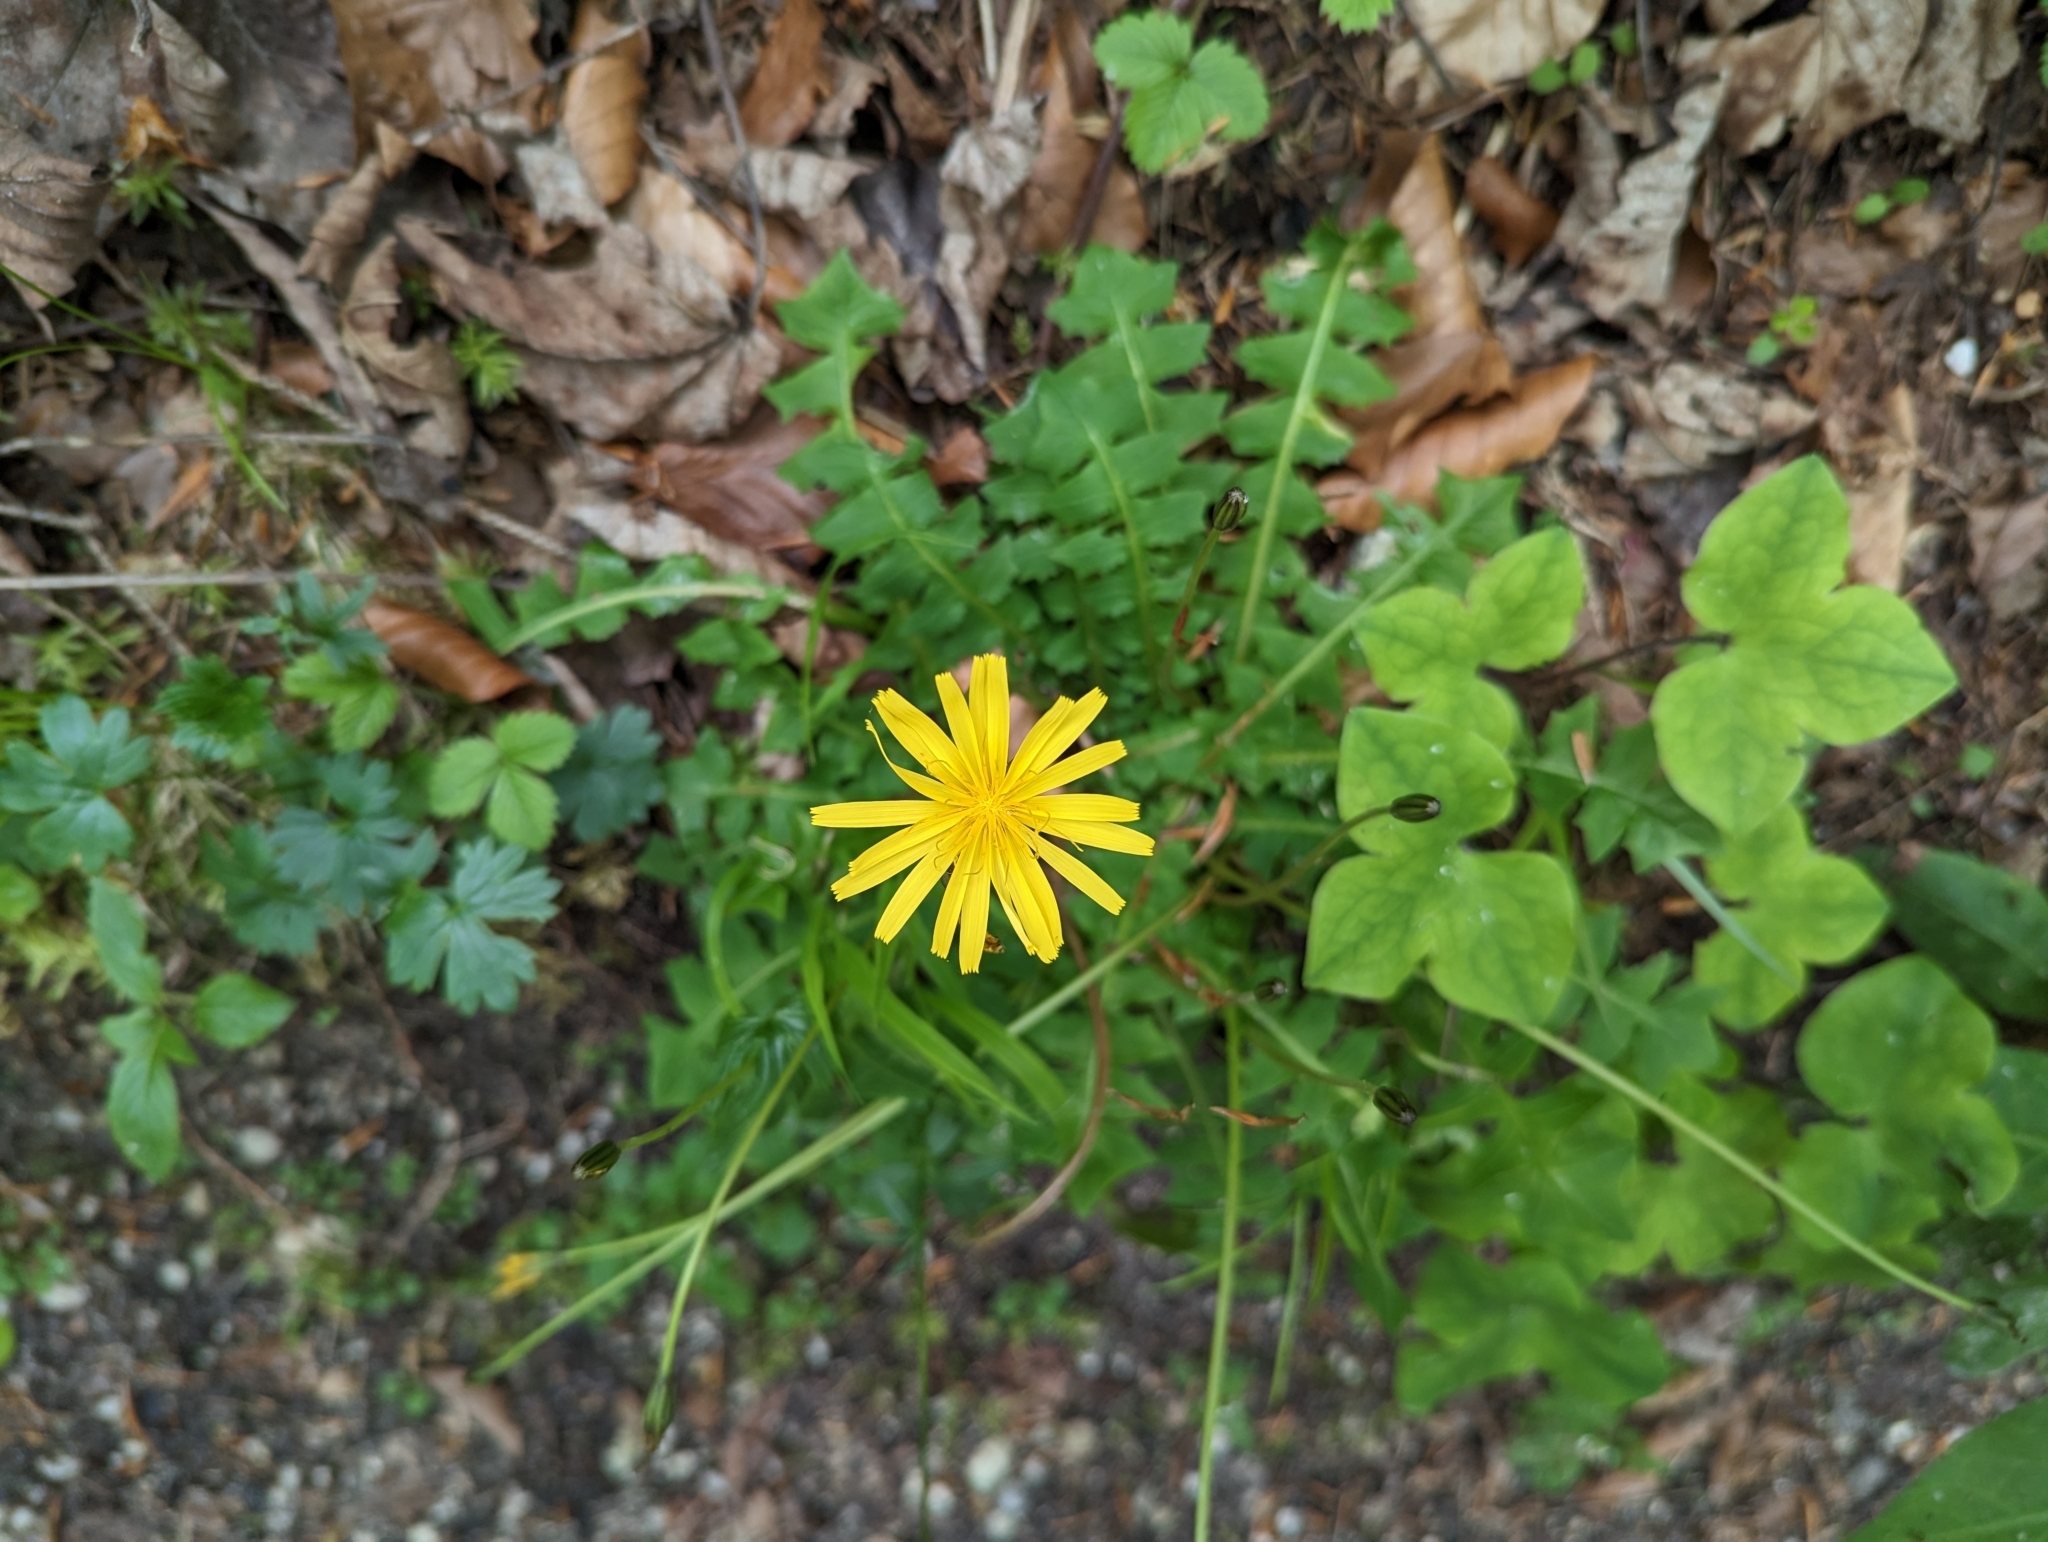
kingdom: Plantae
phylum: Tracheophyta
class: Magnoliopsida
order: Asterales
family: Asteraceae
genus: Aposeris
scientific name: Aposeris foetida
